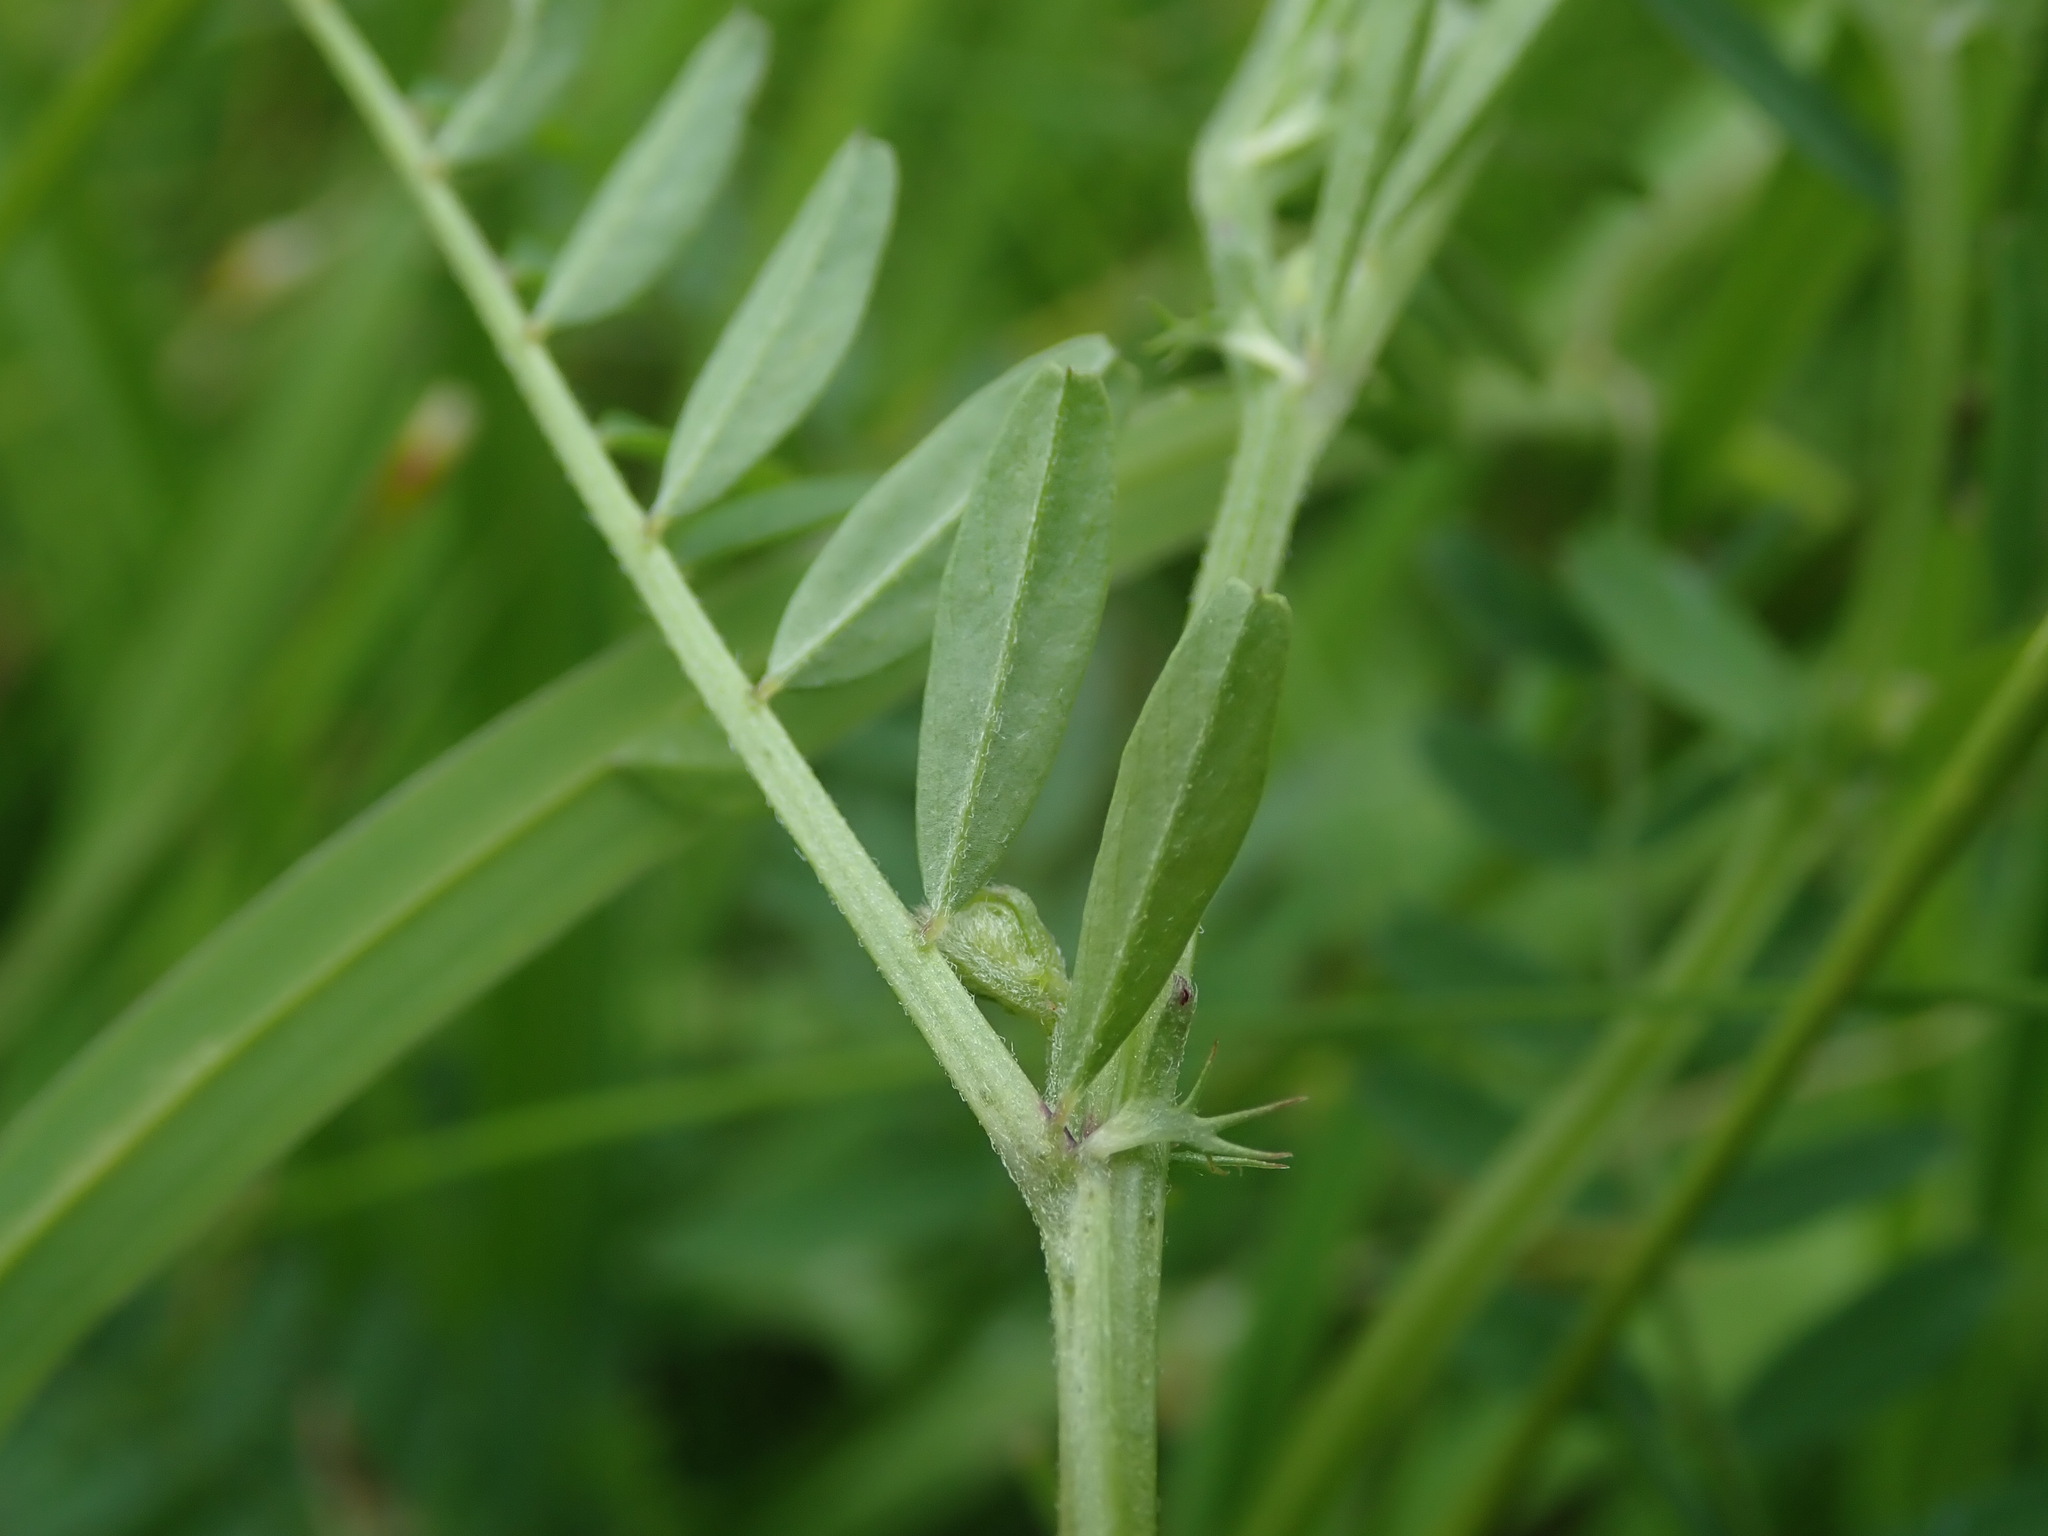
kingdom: Plantae
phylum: Tracheophyta
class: Magnoliopsida
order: Fabales
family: Fabaceae
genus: Vicia
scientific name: Vicia hirsuta
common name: Tiny vetch
